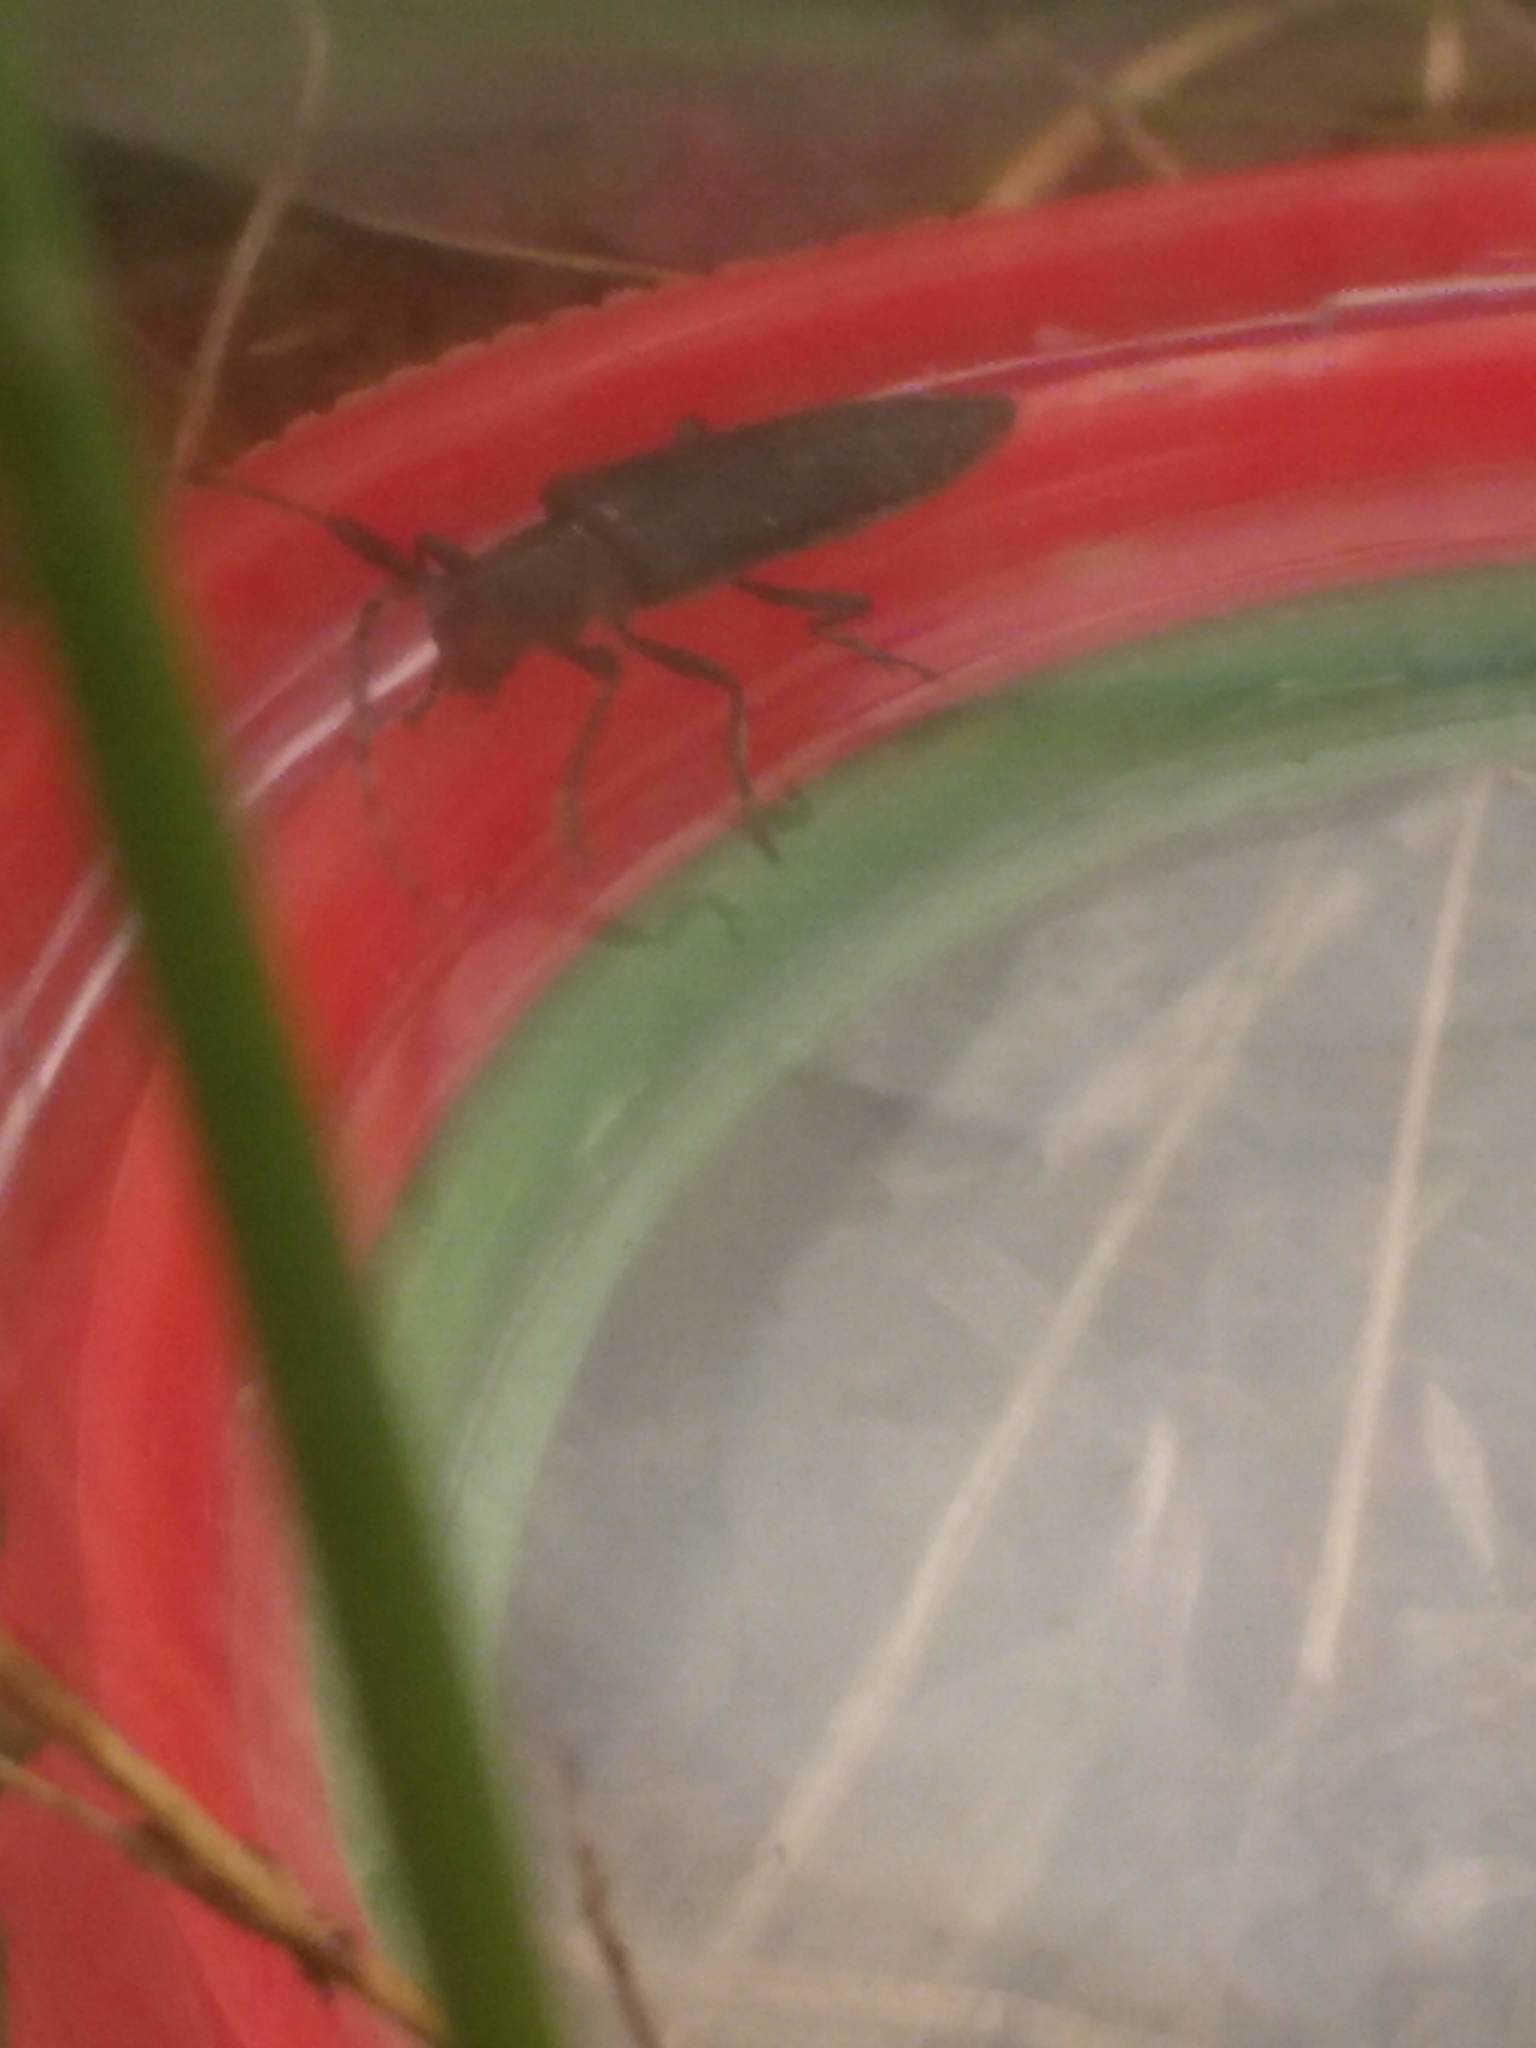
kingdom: Animalia
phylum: Arthropoda
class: Insecta
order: Coleoptera
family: Cerambycidae
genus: Agapanthia
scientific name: Agapanthia villosoviridescens
